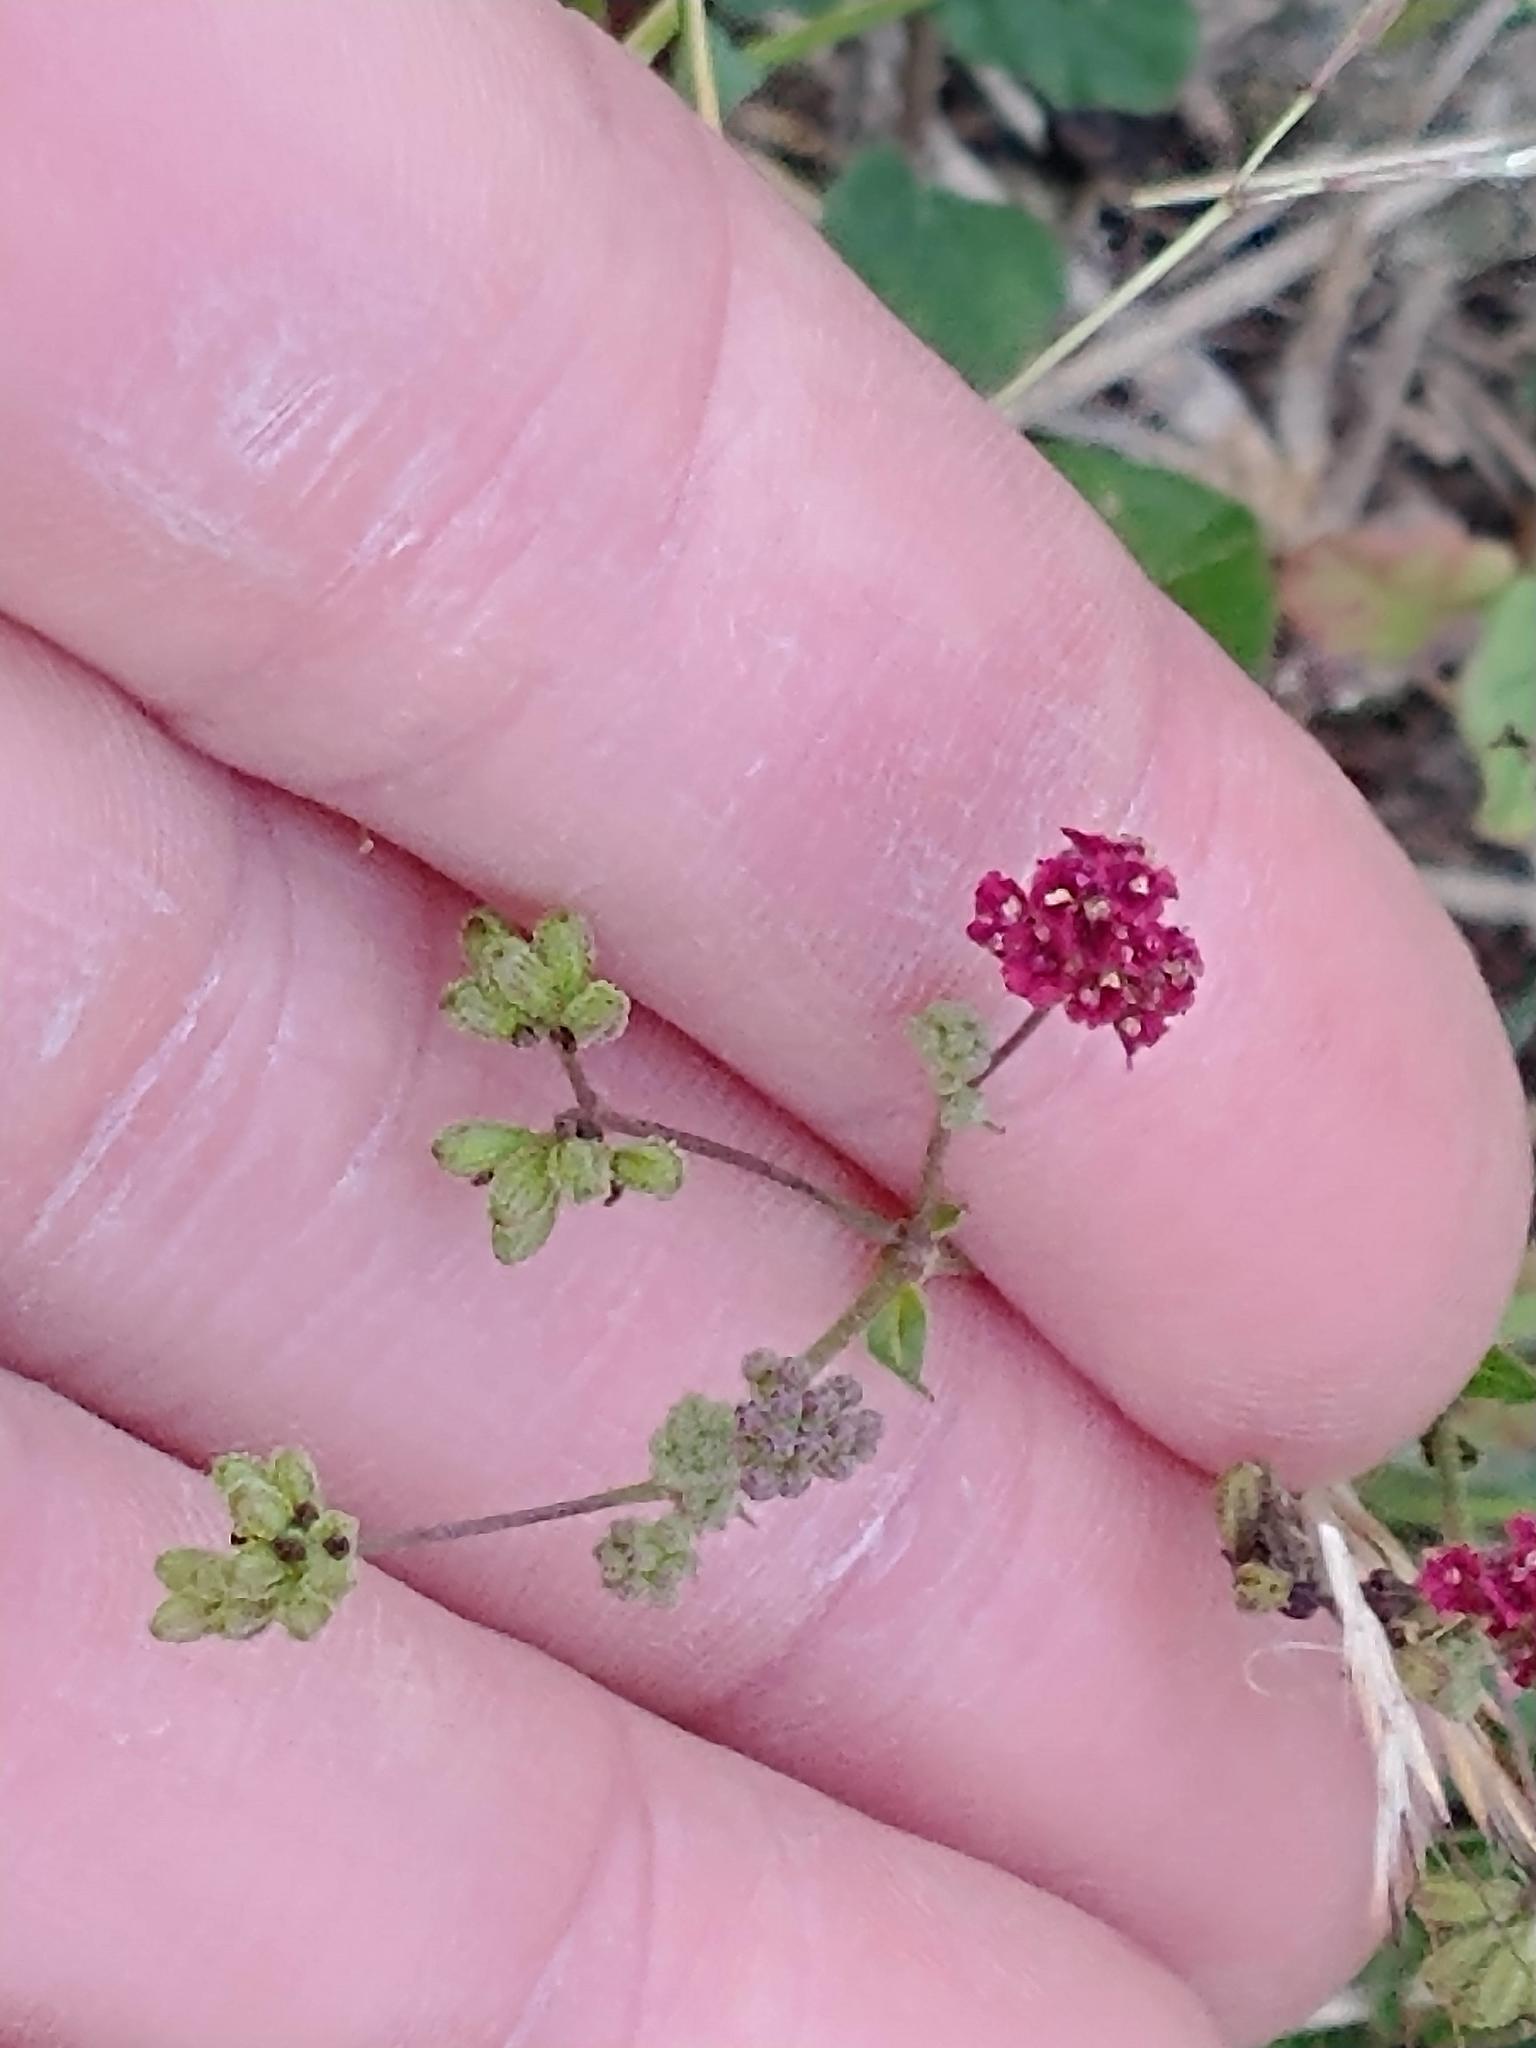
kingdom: Plantae
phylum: Tracheophyta
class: Magnoliopsida
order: Caryophyllales
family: Nyctaginaceae
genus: Boerhavia
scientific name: Boerhavia coccinea
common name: Scarlet spiderling
